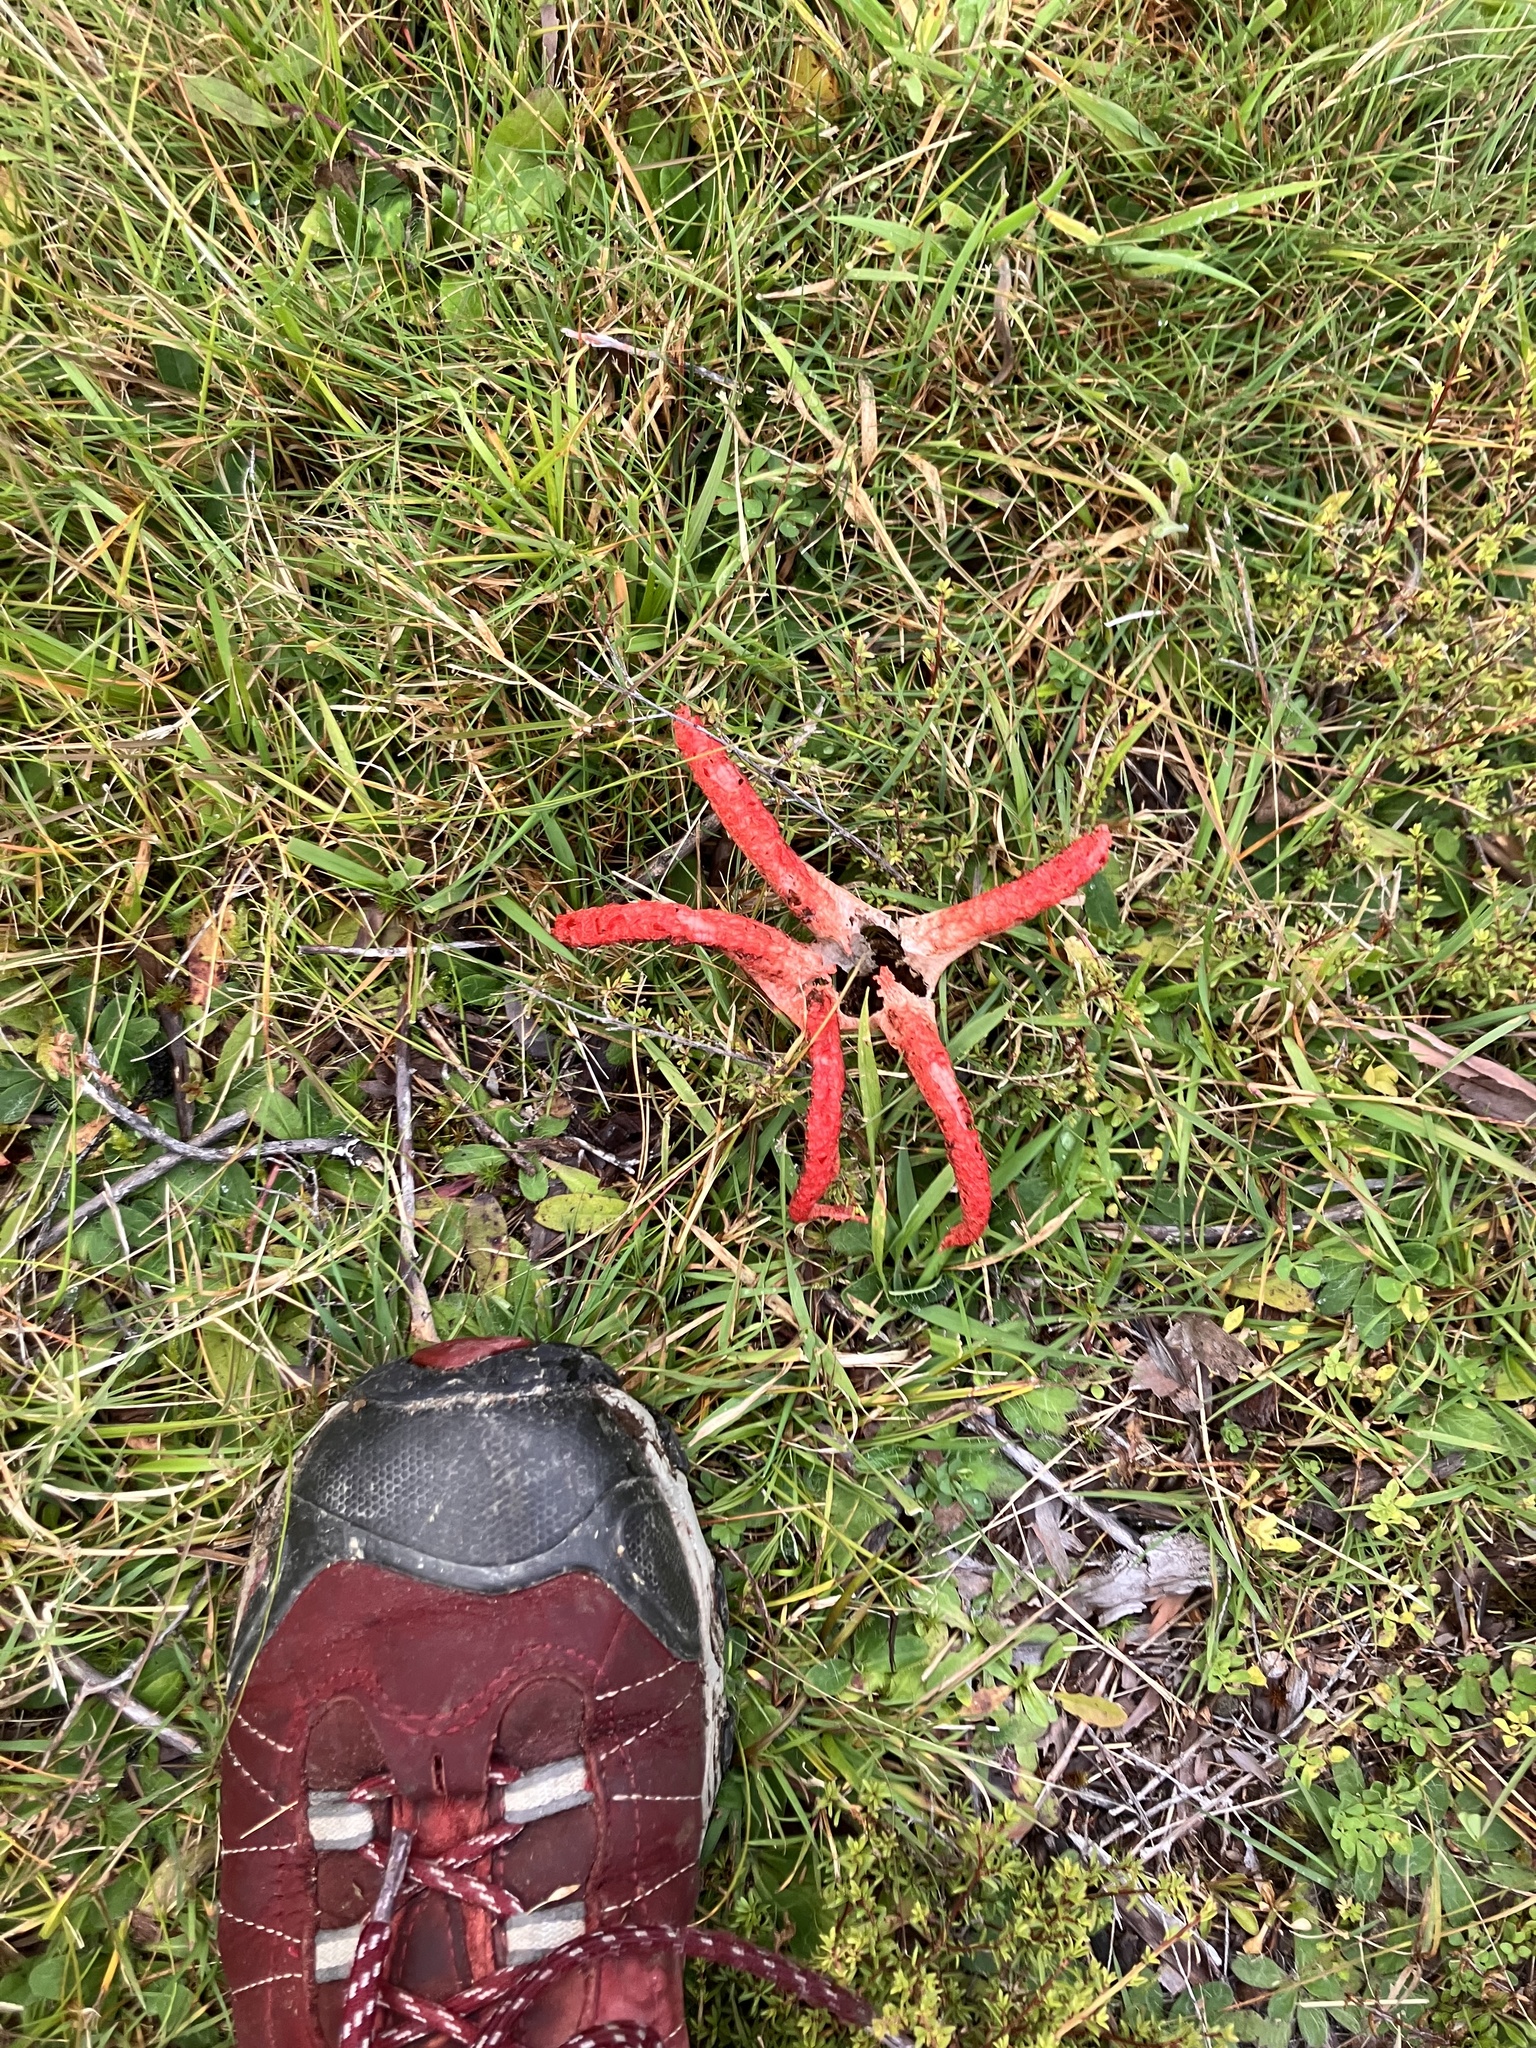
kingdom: Fungi
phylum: Basidiomycota
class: Agaricomycetes
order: Phallales
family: Phallaceae
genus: Clathrus
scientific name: Clathrus archeri
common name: Devil's fingers
